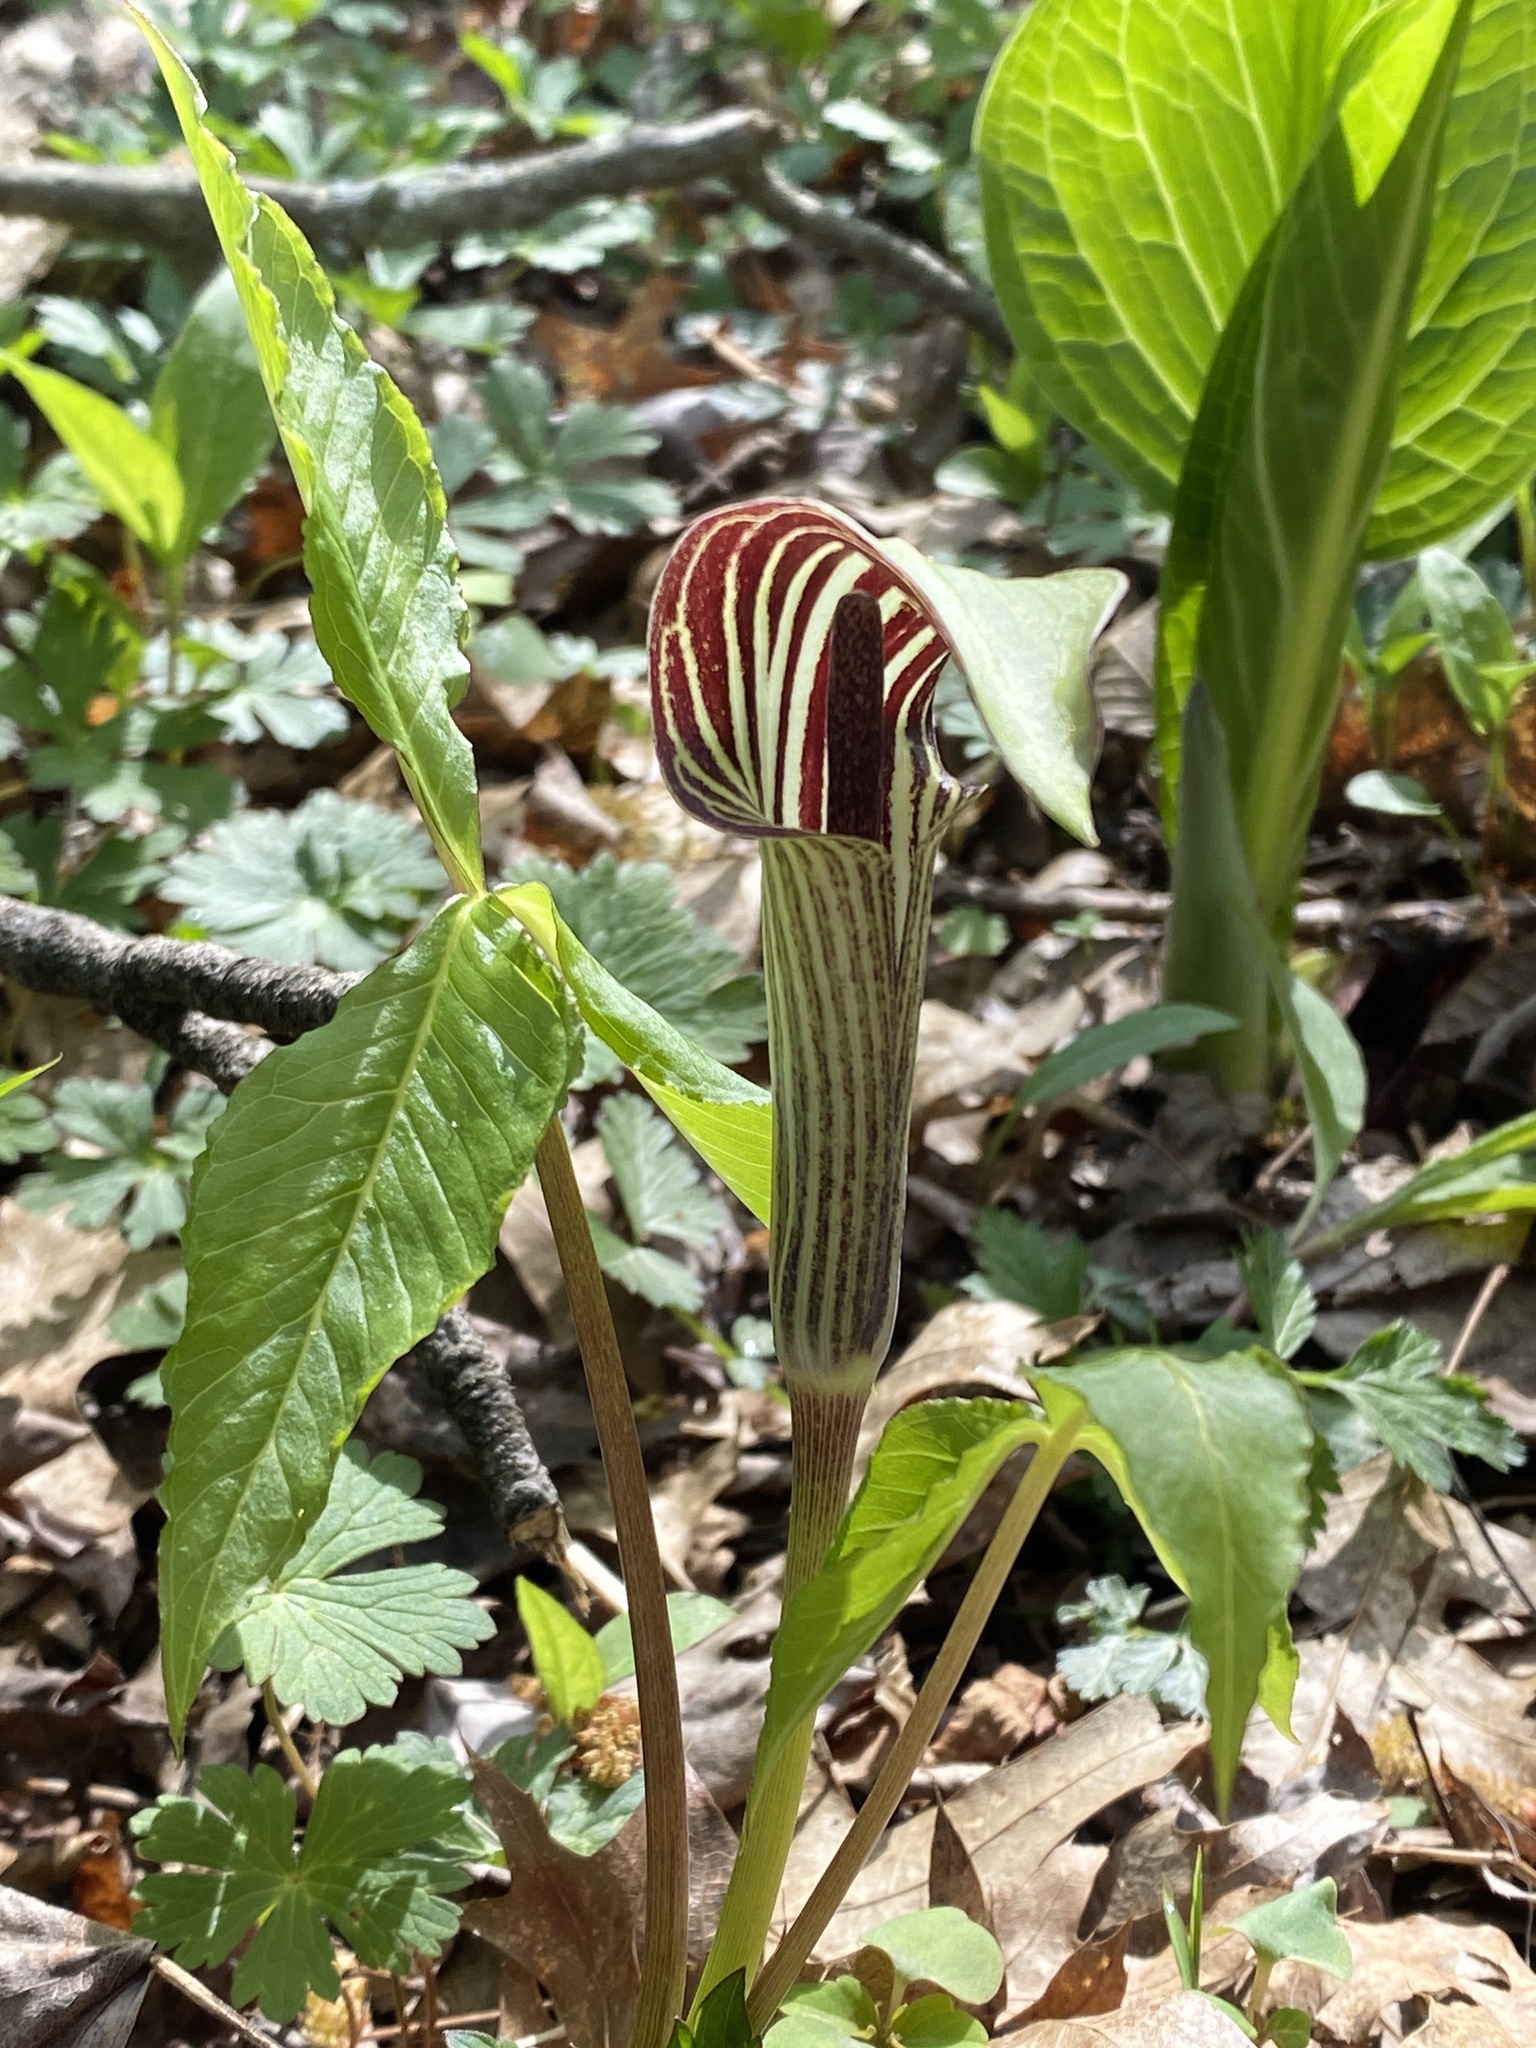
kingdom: Plantae
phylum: Tracheophyta
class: Liliopsida
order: Alismatales
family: Araceae
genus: Arisaema
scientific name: Arisaema triphyllum
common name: Jack-in-the-pulpit
